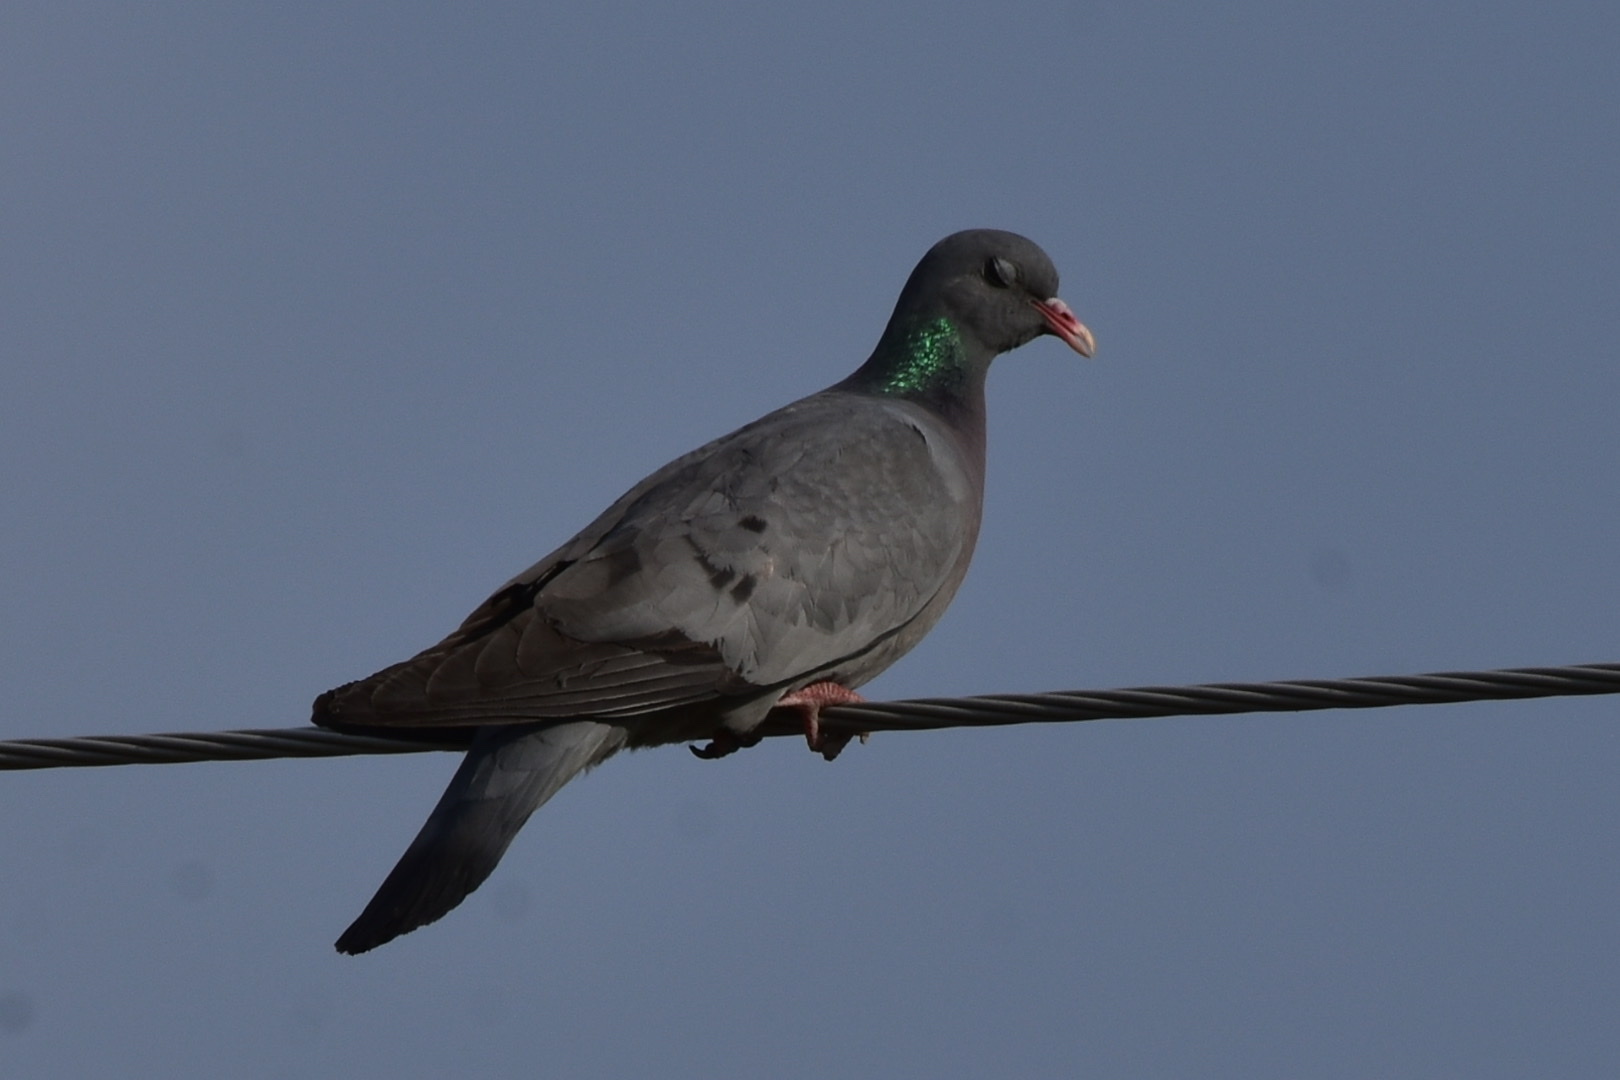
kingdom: Animalia
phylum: Chordata
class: Aves
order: Columbiformes
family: Columbidae
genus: Columba
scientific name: Columba oenas
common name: Stock dove
